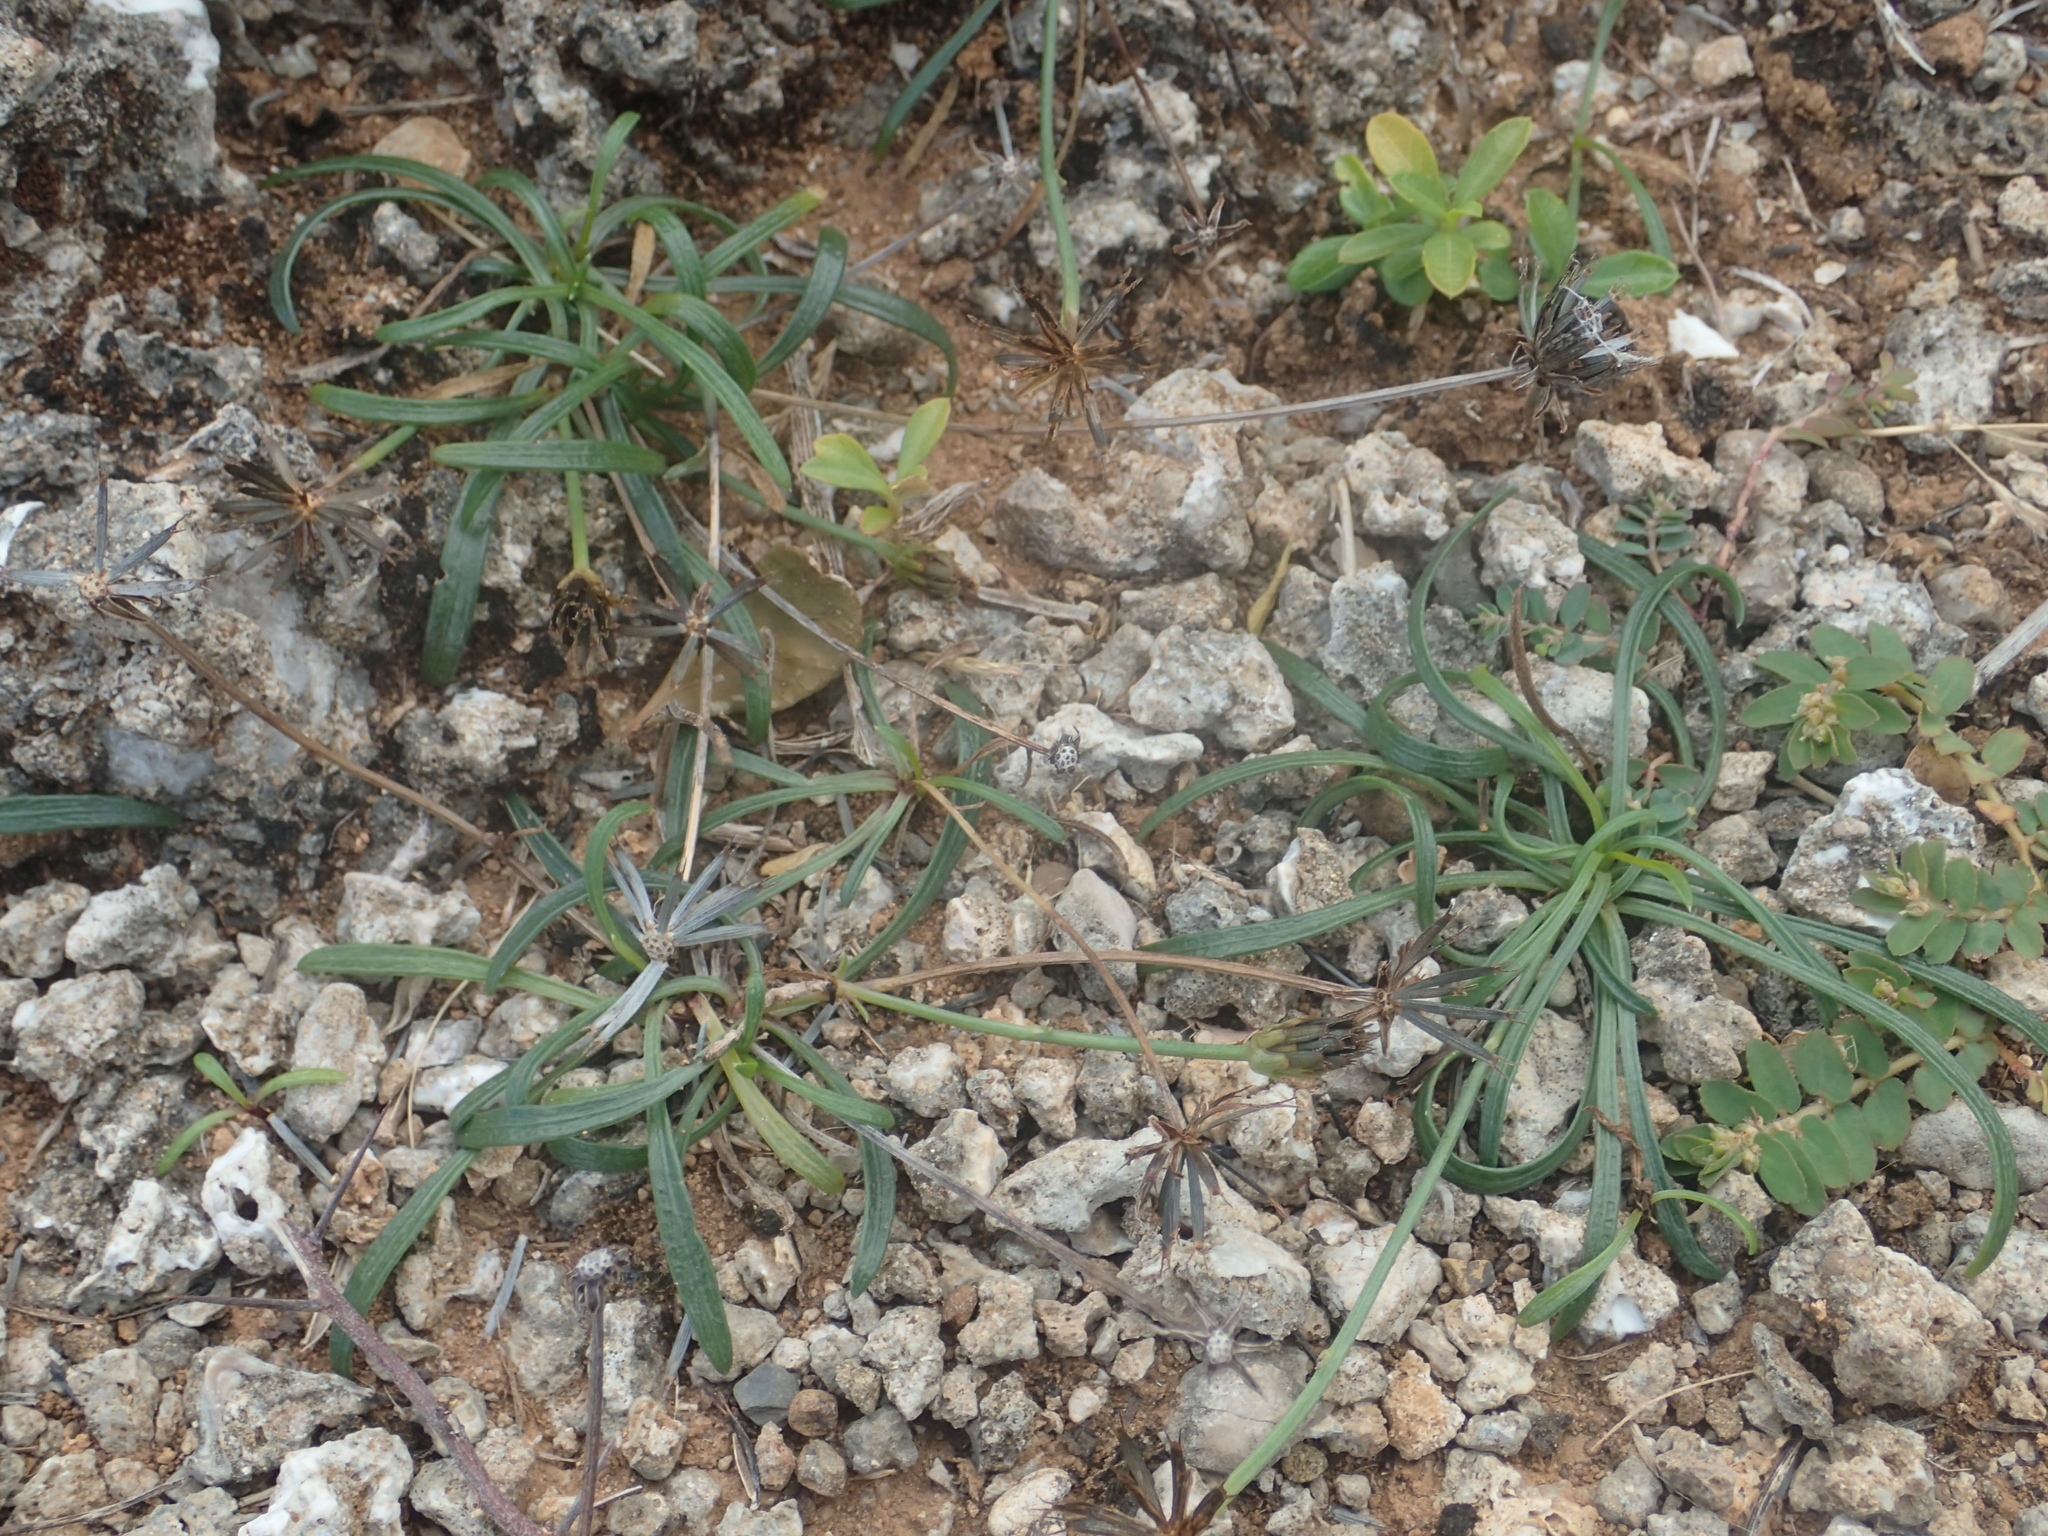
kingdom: Plantae
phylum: Tracheophyta
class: Magnoliopsida
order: Asterales
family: Asteraceae
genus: Glossocardia
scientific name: Glossocardia bidens
